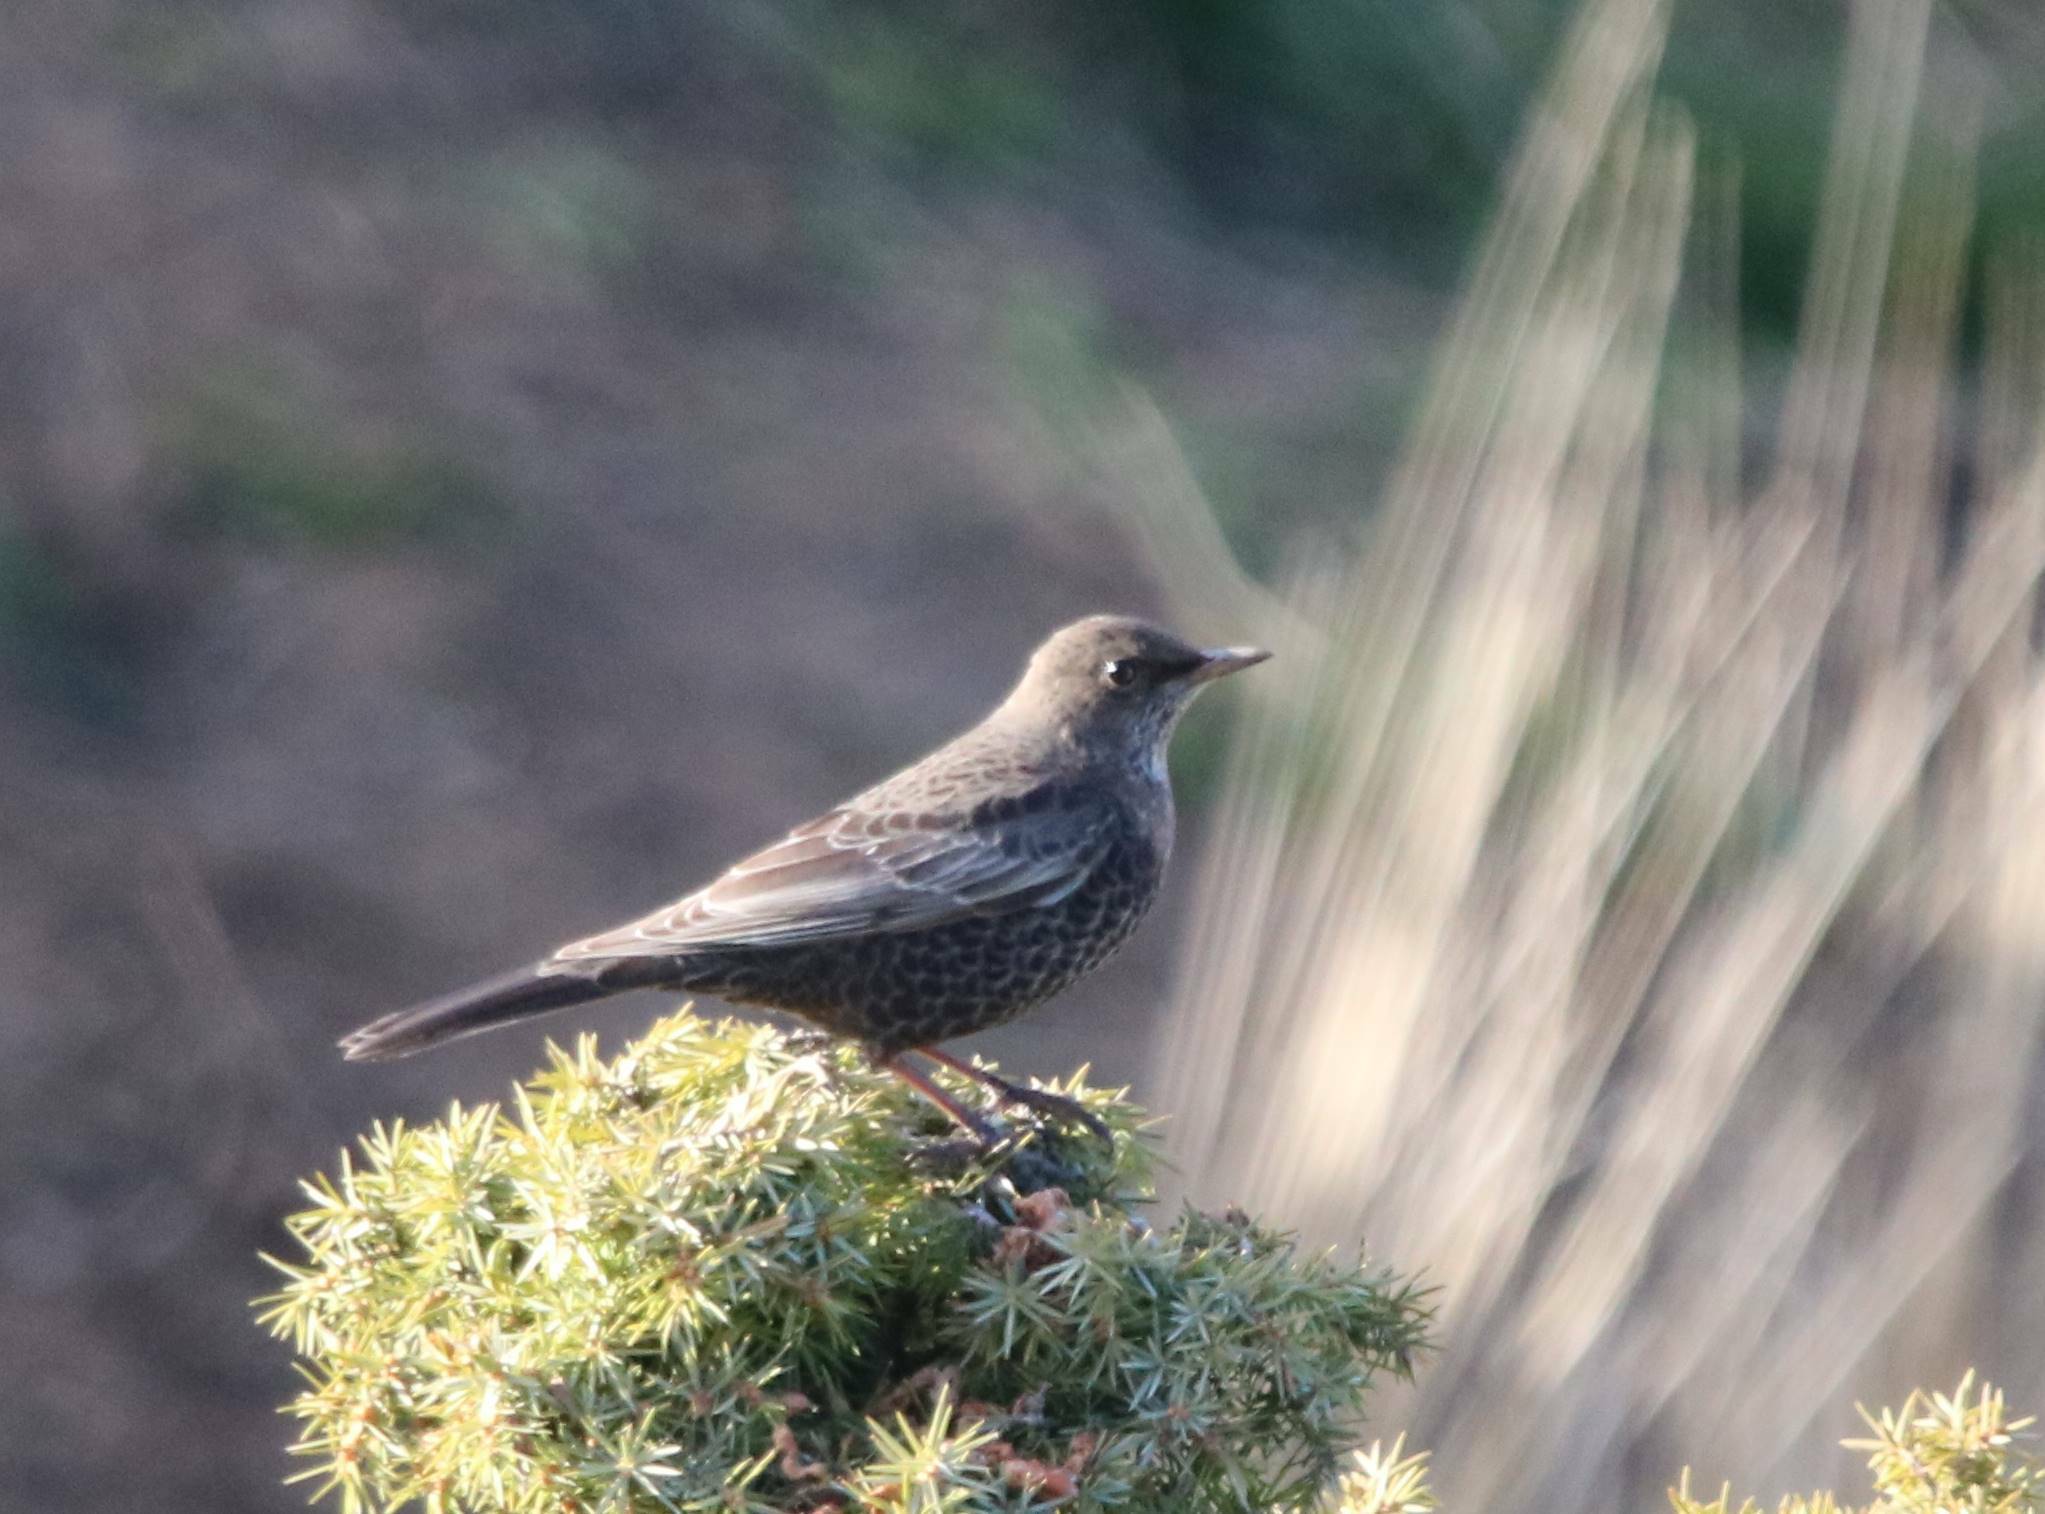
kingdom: Animalia
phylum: Chordata
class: Aves
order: Passeriformes
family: Turdidae
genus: Turdus
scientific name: Turdus torquatus
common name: Ring ouzel
